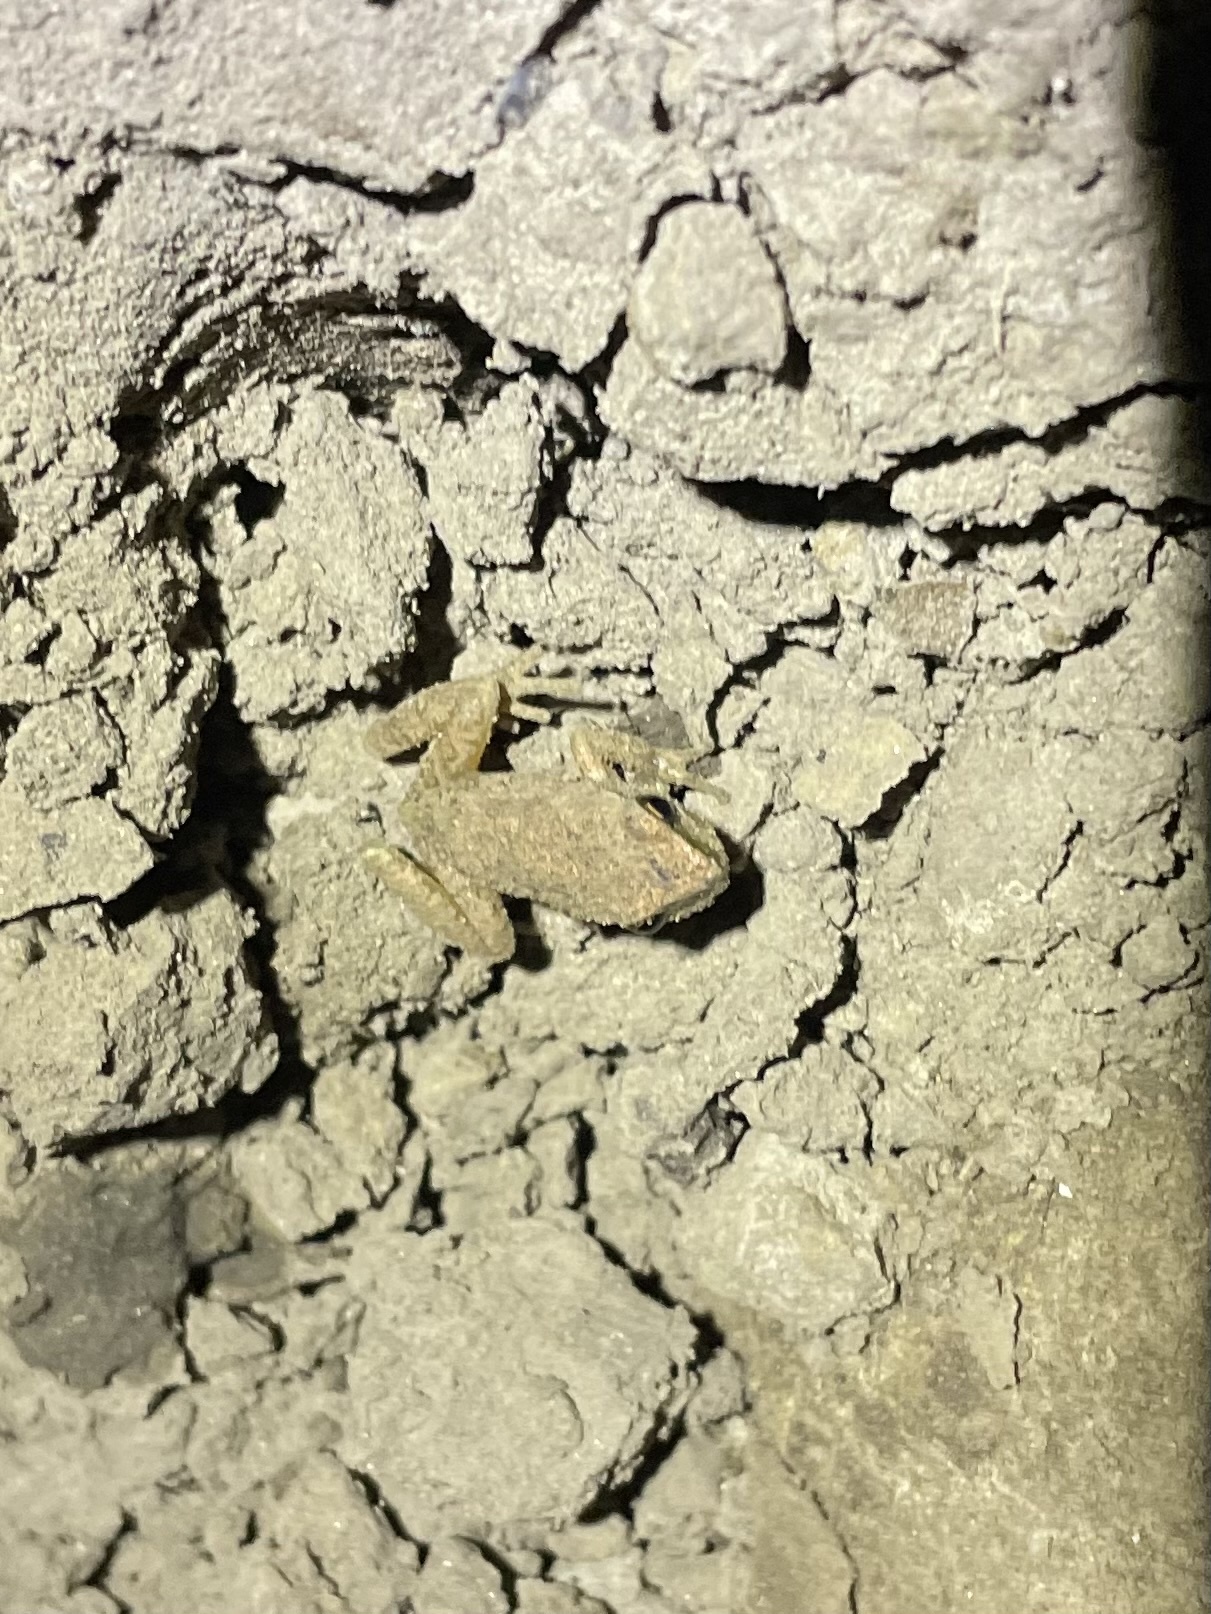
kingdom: Animalia
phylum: Chordata
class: Amphibia
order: Anura
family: Hylidae
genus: Pseudacris
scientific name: Pseudacris regilla
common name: Pacific chorus frog
